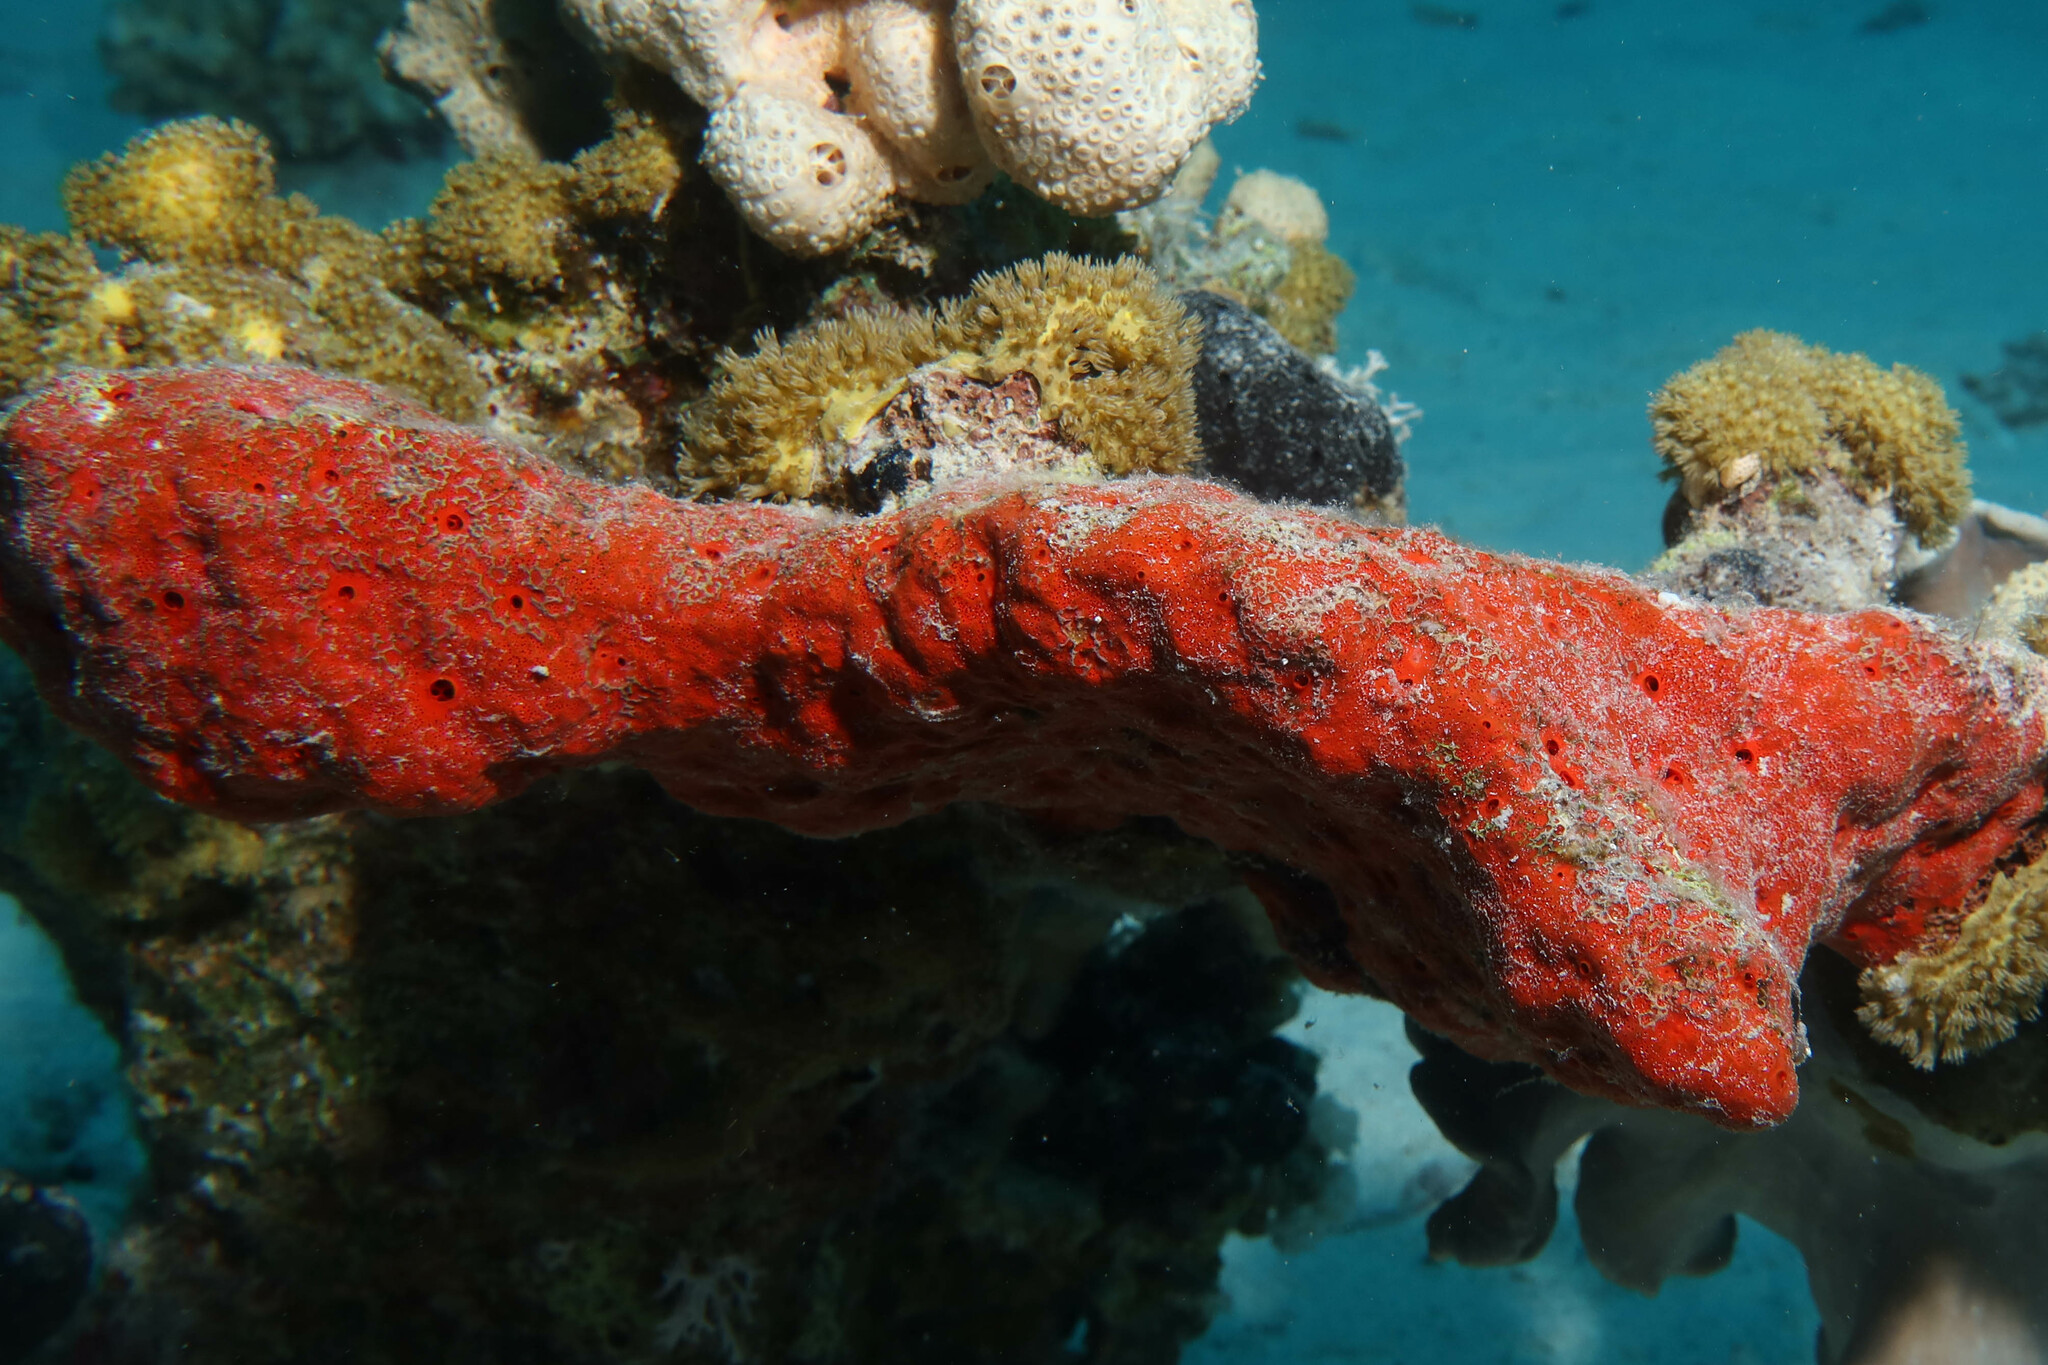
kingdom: Animalia
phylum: Porifera
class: Demospongiae
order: Clionaida
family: Clionaidae
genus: Pione
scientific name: Pione mussae
